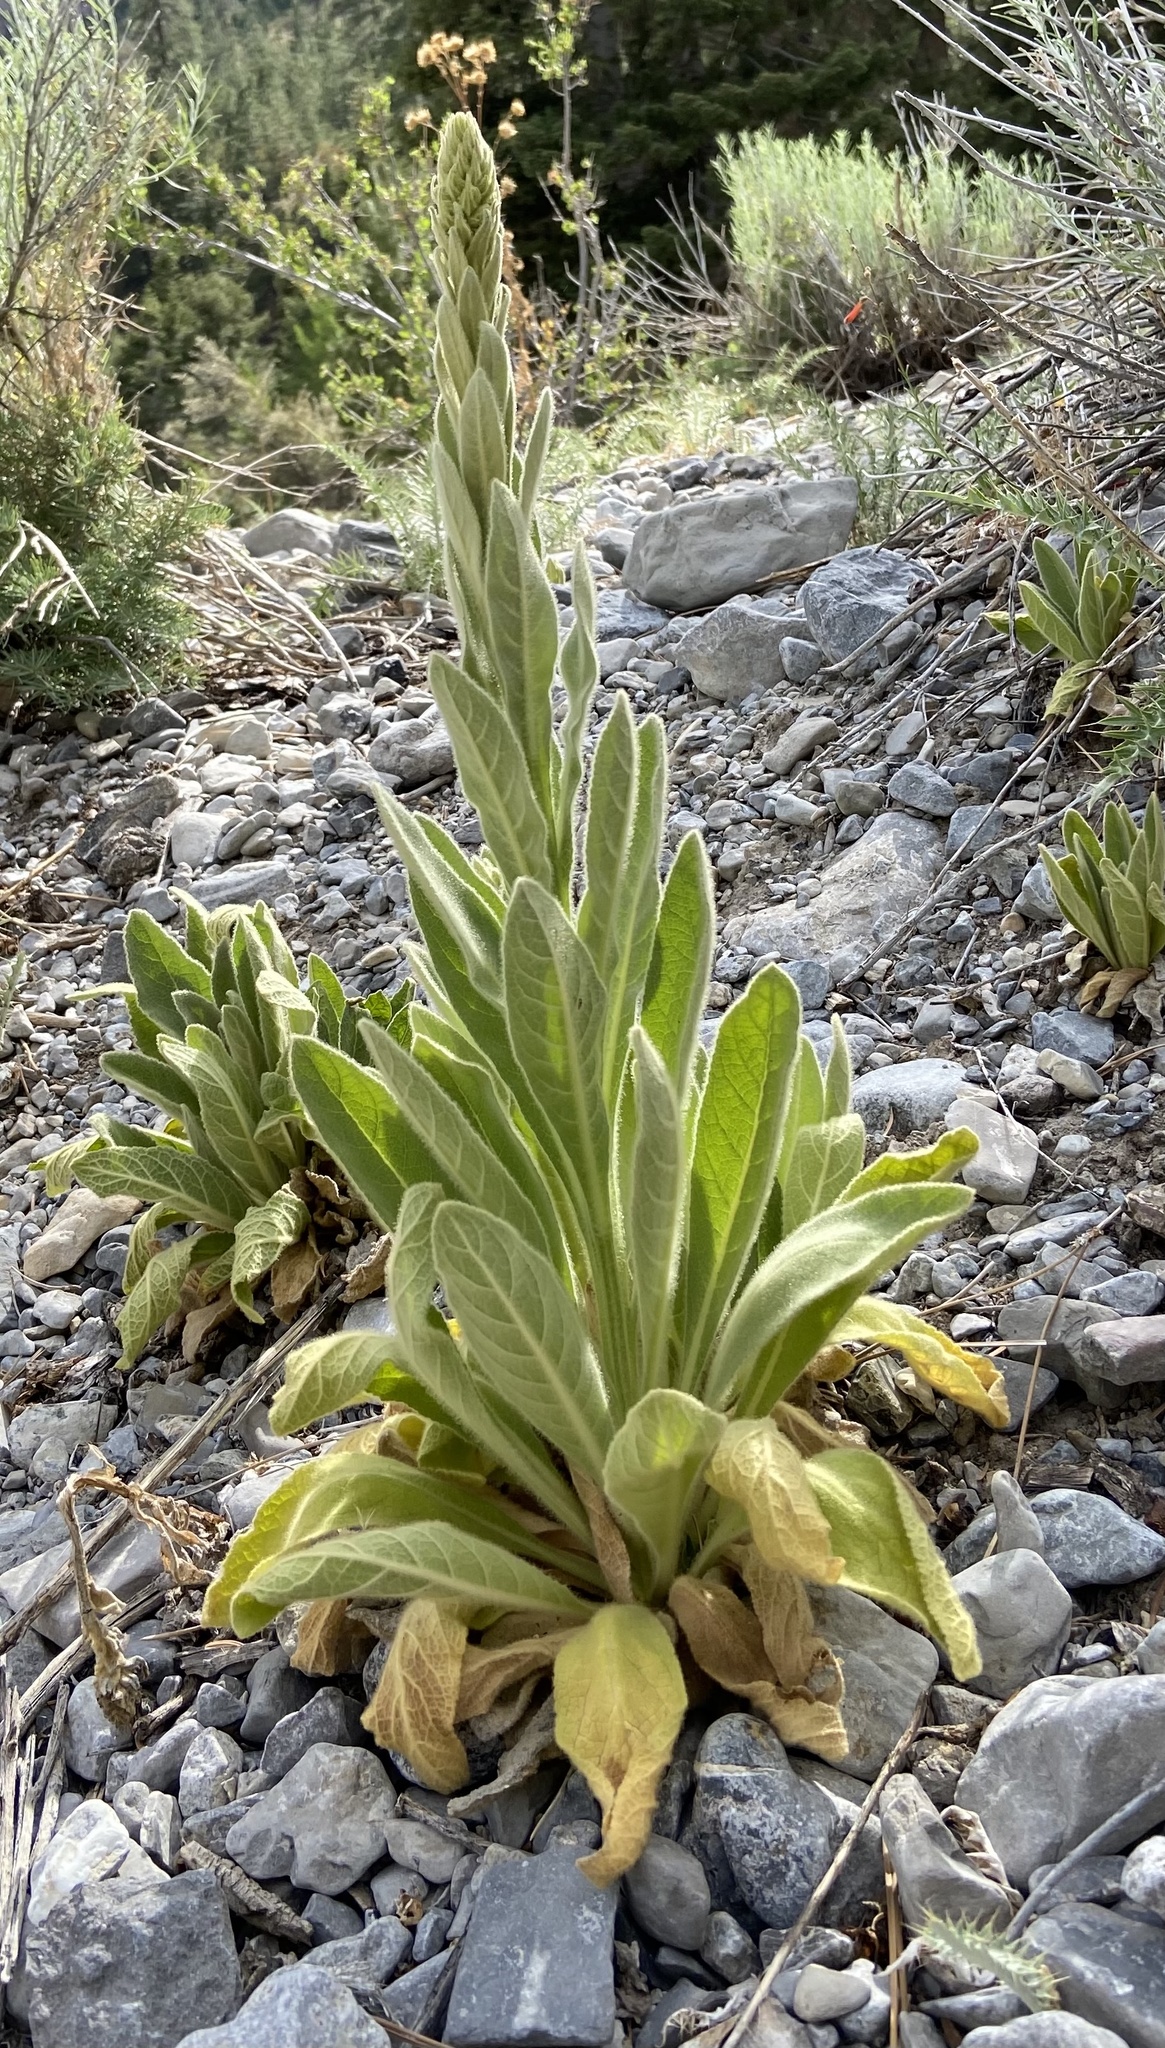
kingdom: Plantae
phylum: Tracheophyta
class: Magnoliopsida
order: Lamiales
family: Scrophulariaceae
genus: Verbascum
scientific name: Verbascum thapsus
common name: Common mullein
